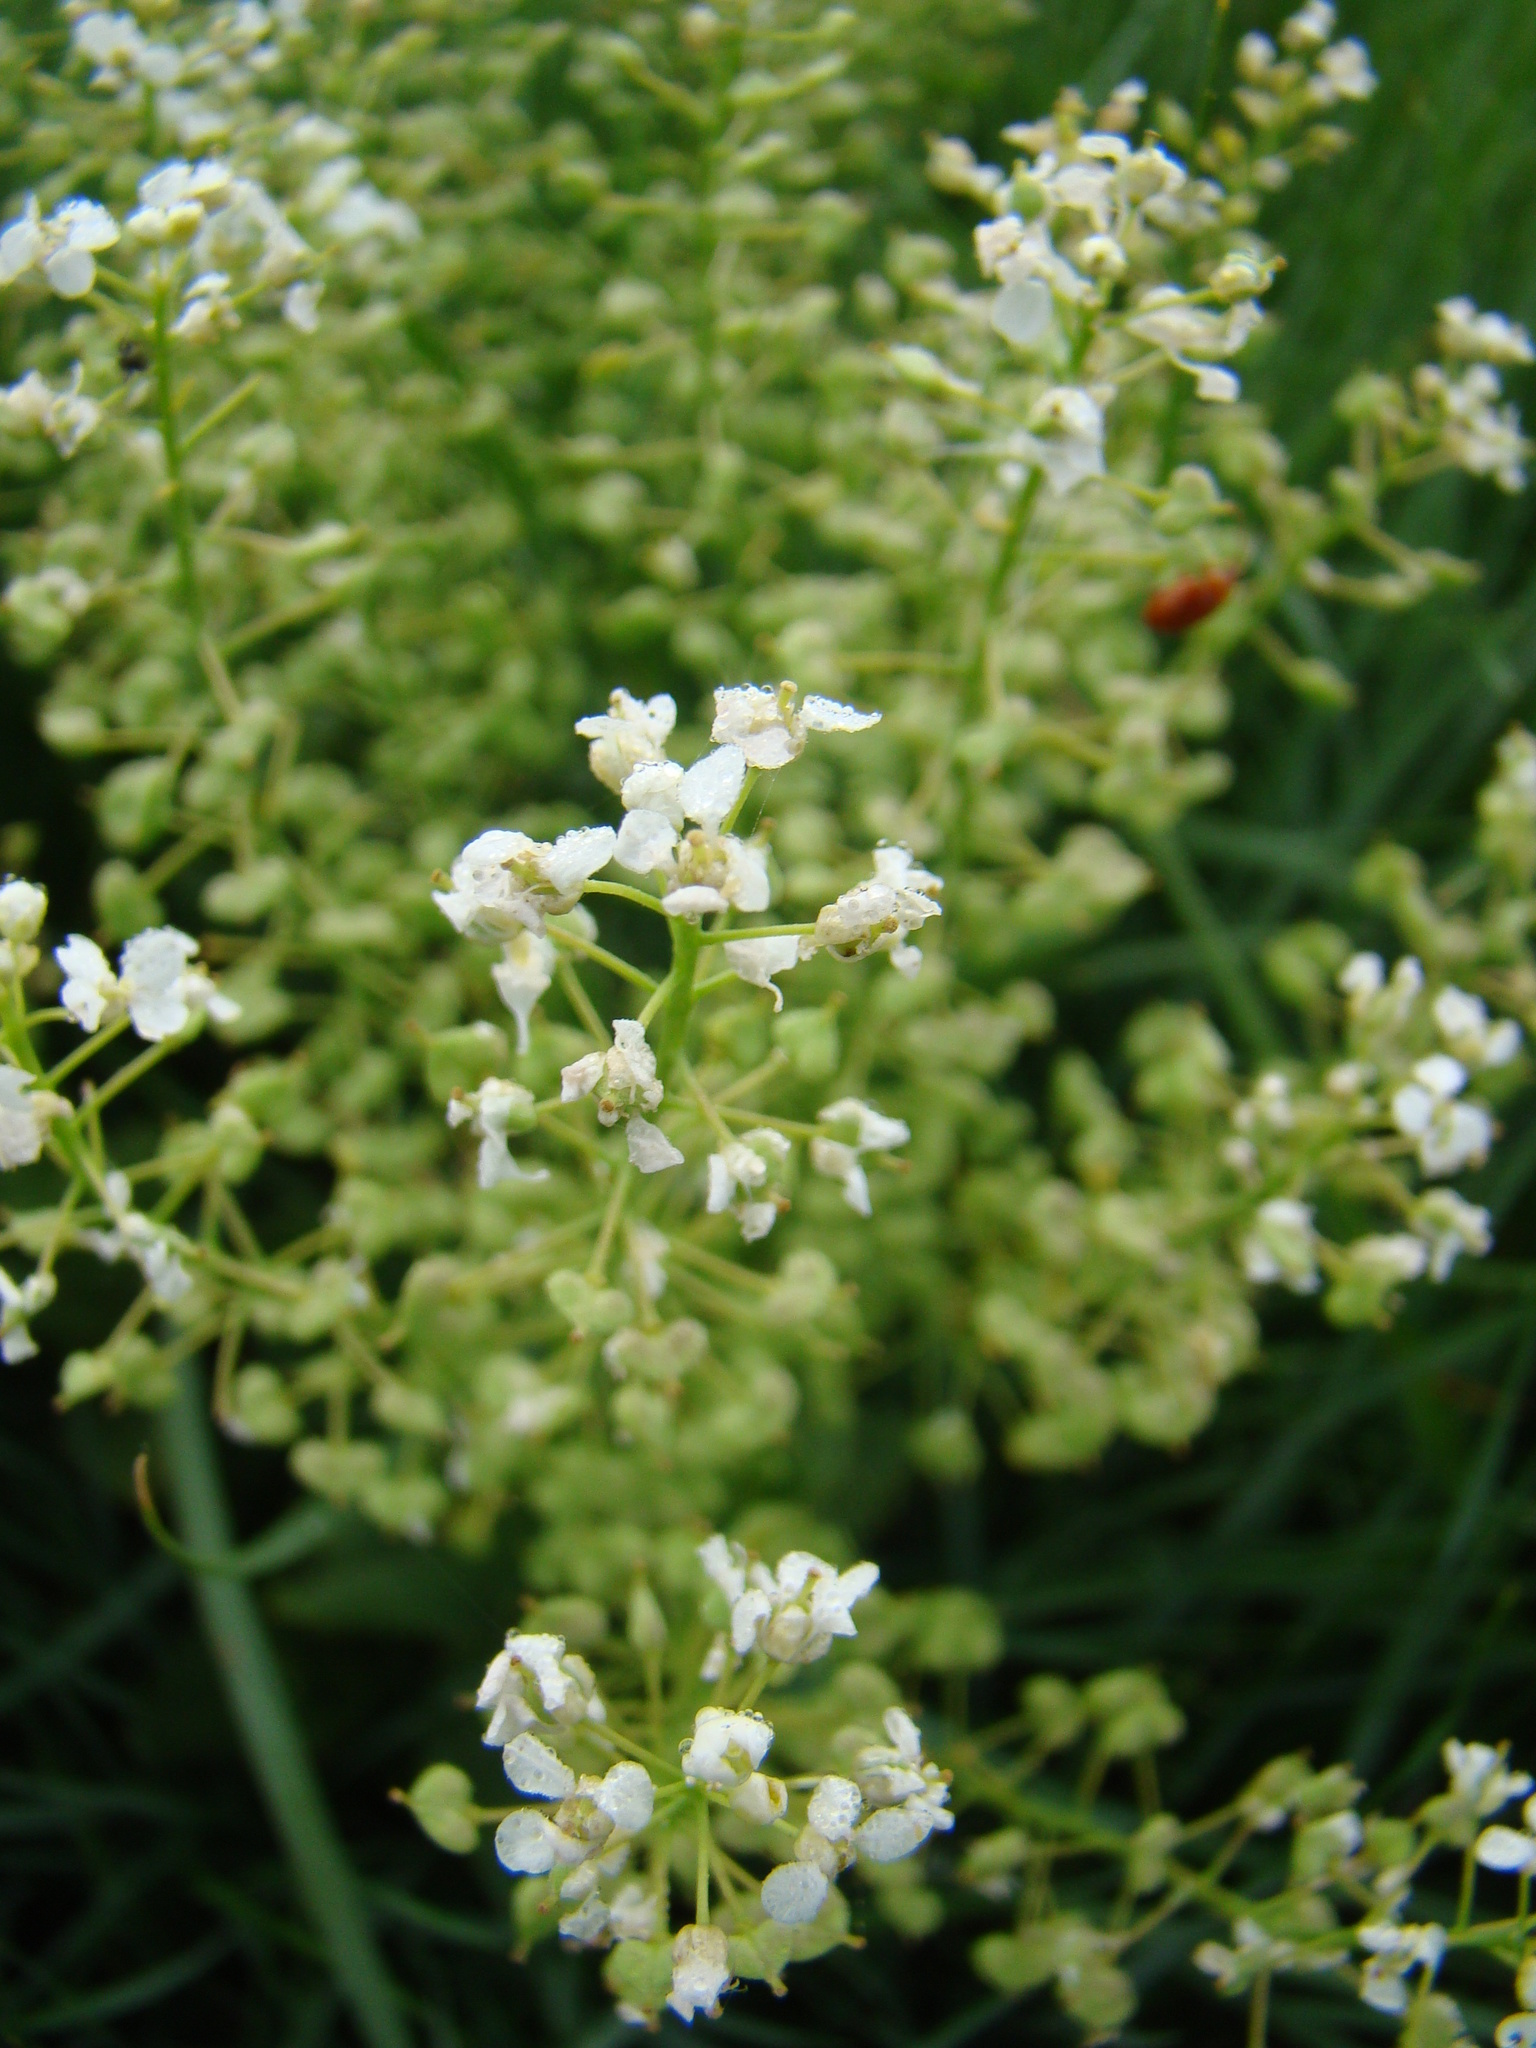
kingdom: Plantae
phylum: Tracheophyta
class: Magnoliopsida
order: Brassicales
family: Brassicaceae
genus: Lepidium
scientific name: Lepidium draba
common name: Hoary cress
